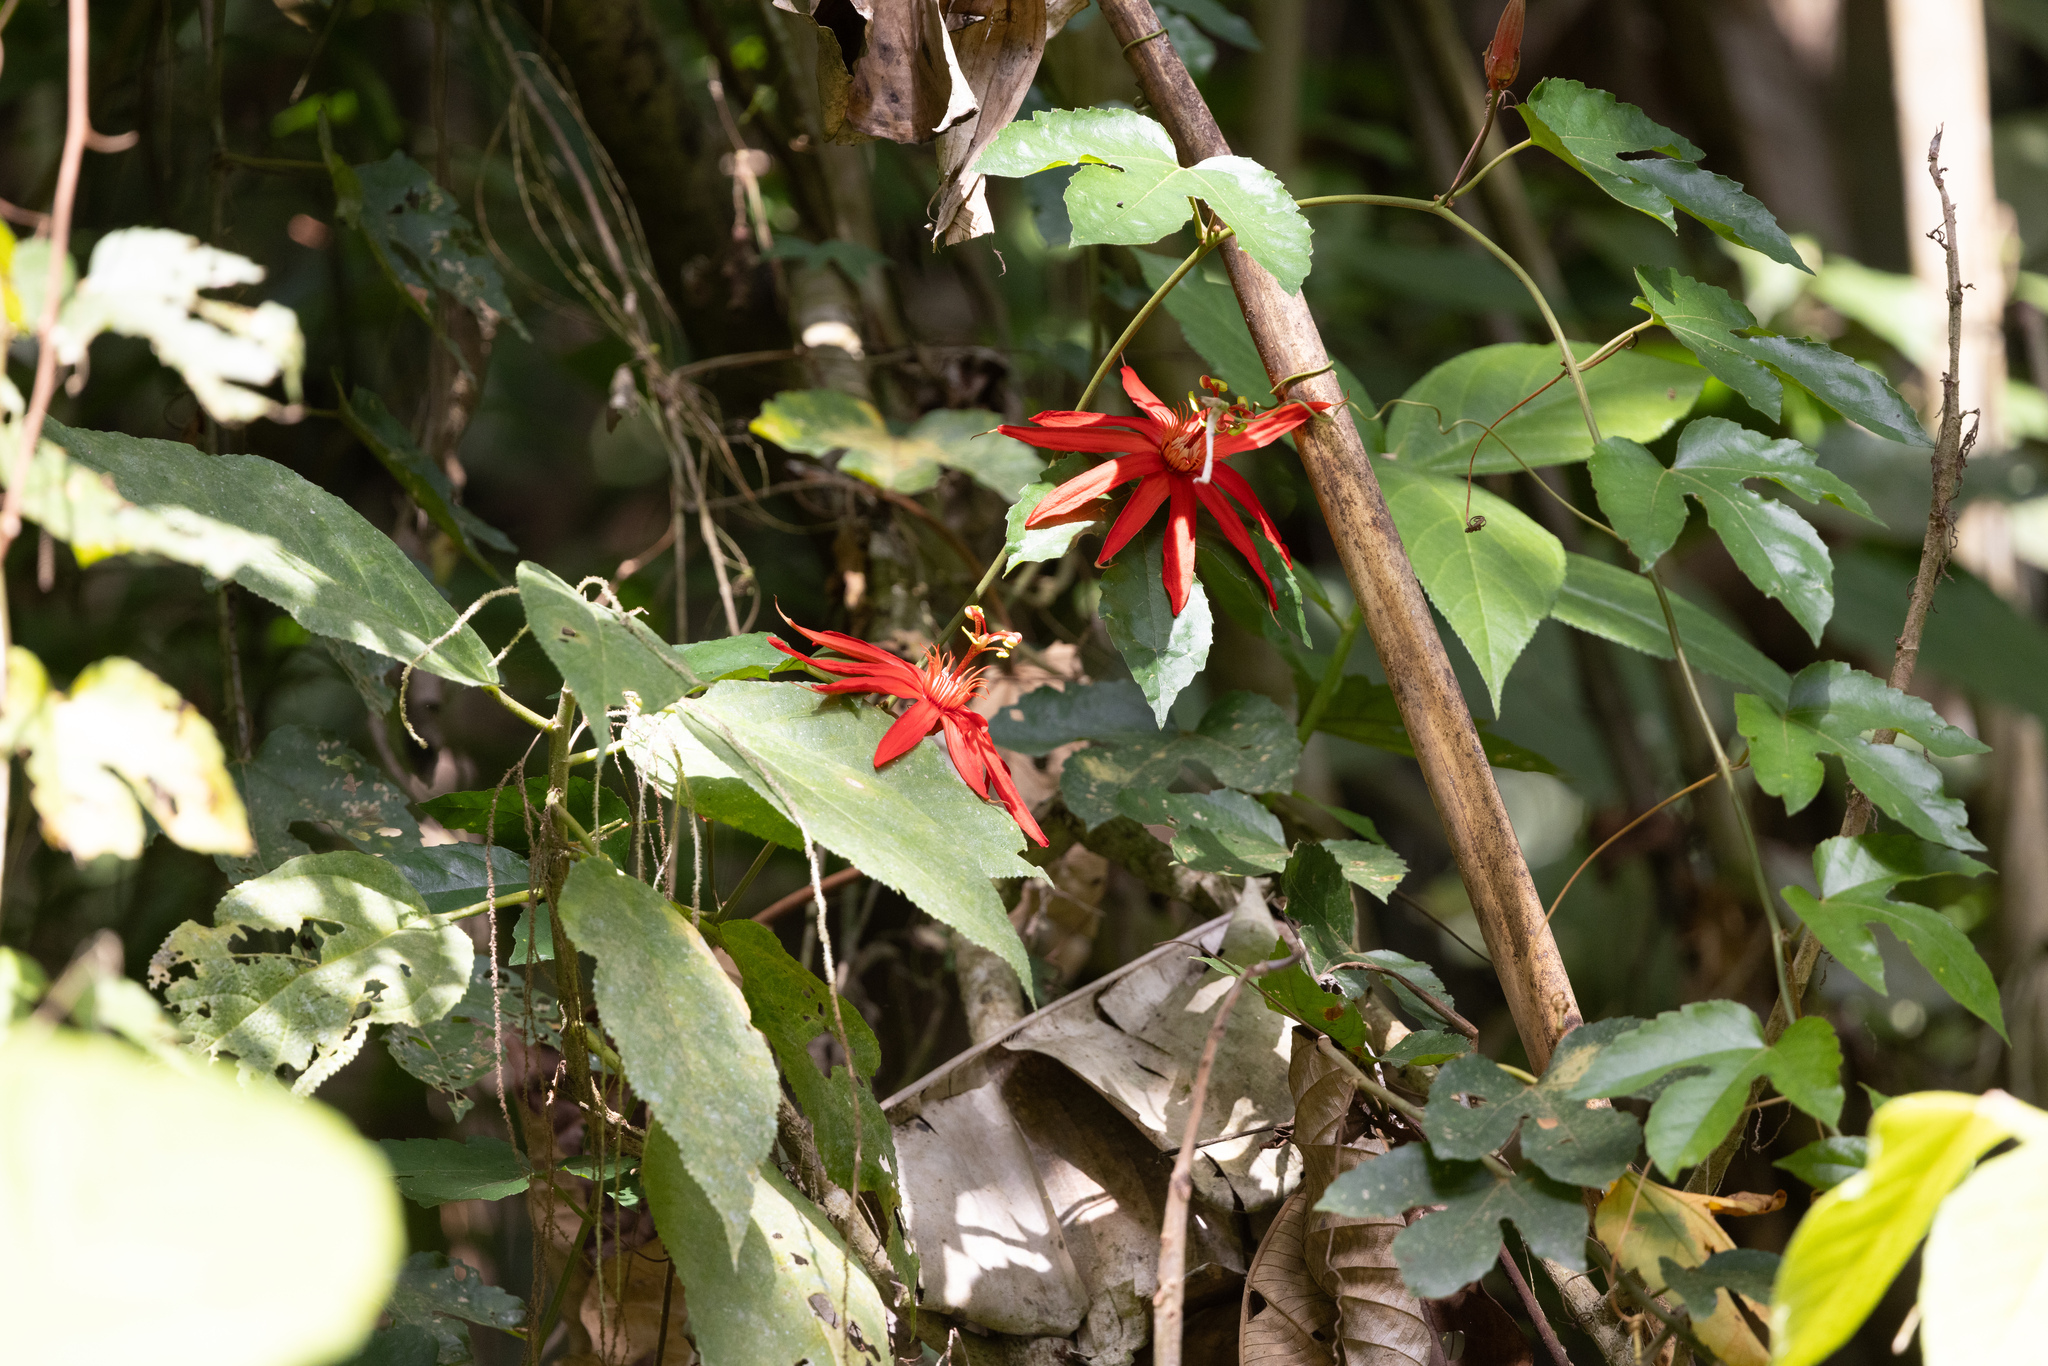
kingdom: Plantae
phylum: Tracheophyta
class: Magnoliopsida
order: Malpighiales
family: Passifloraceae
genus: Passiflora
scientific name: Passiflora vitifolia
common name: Perfumed passionflower
